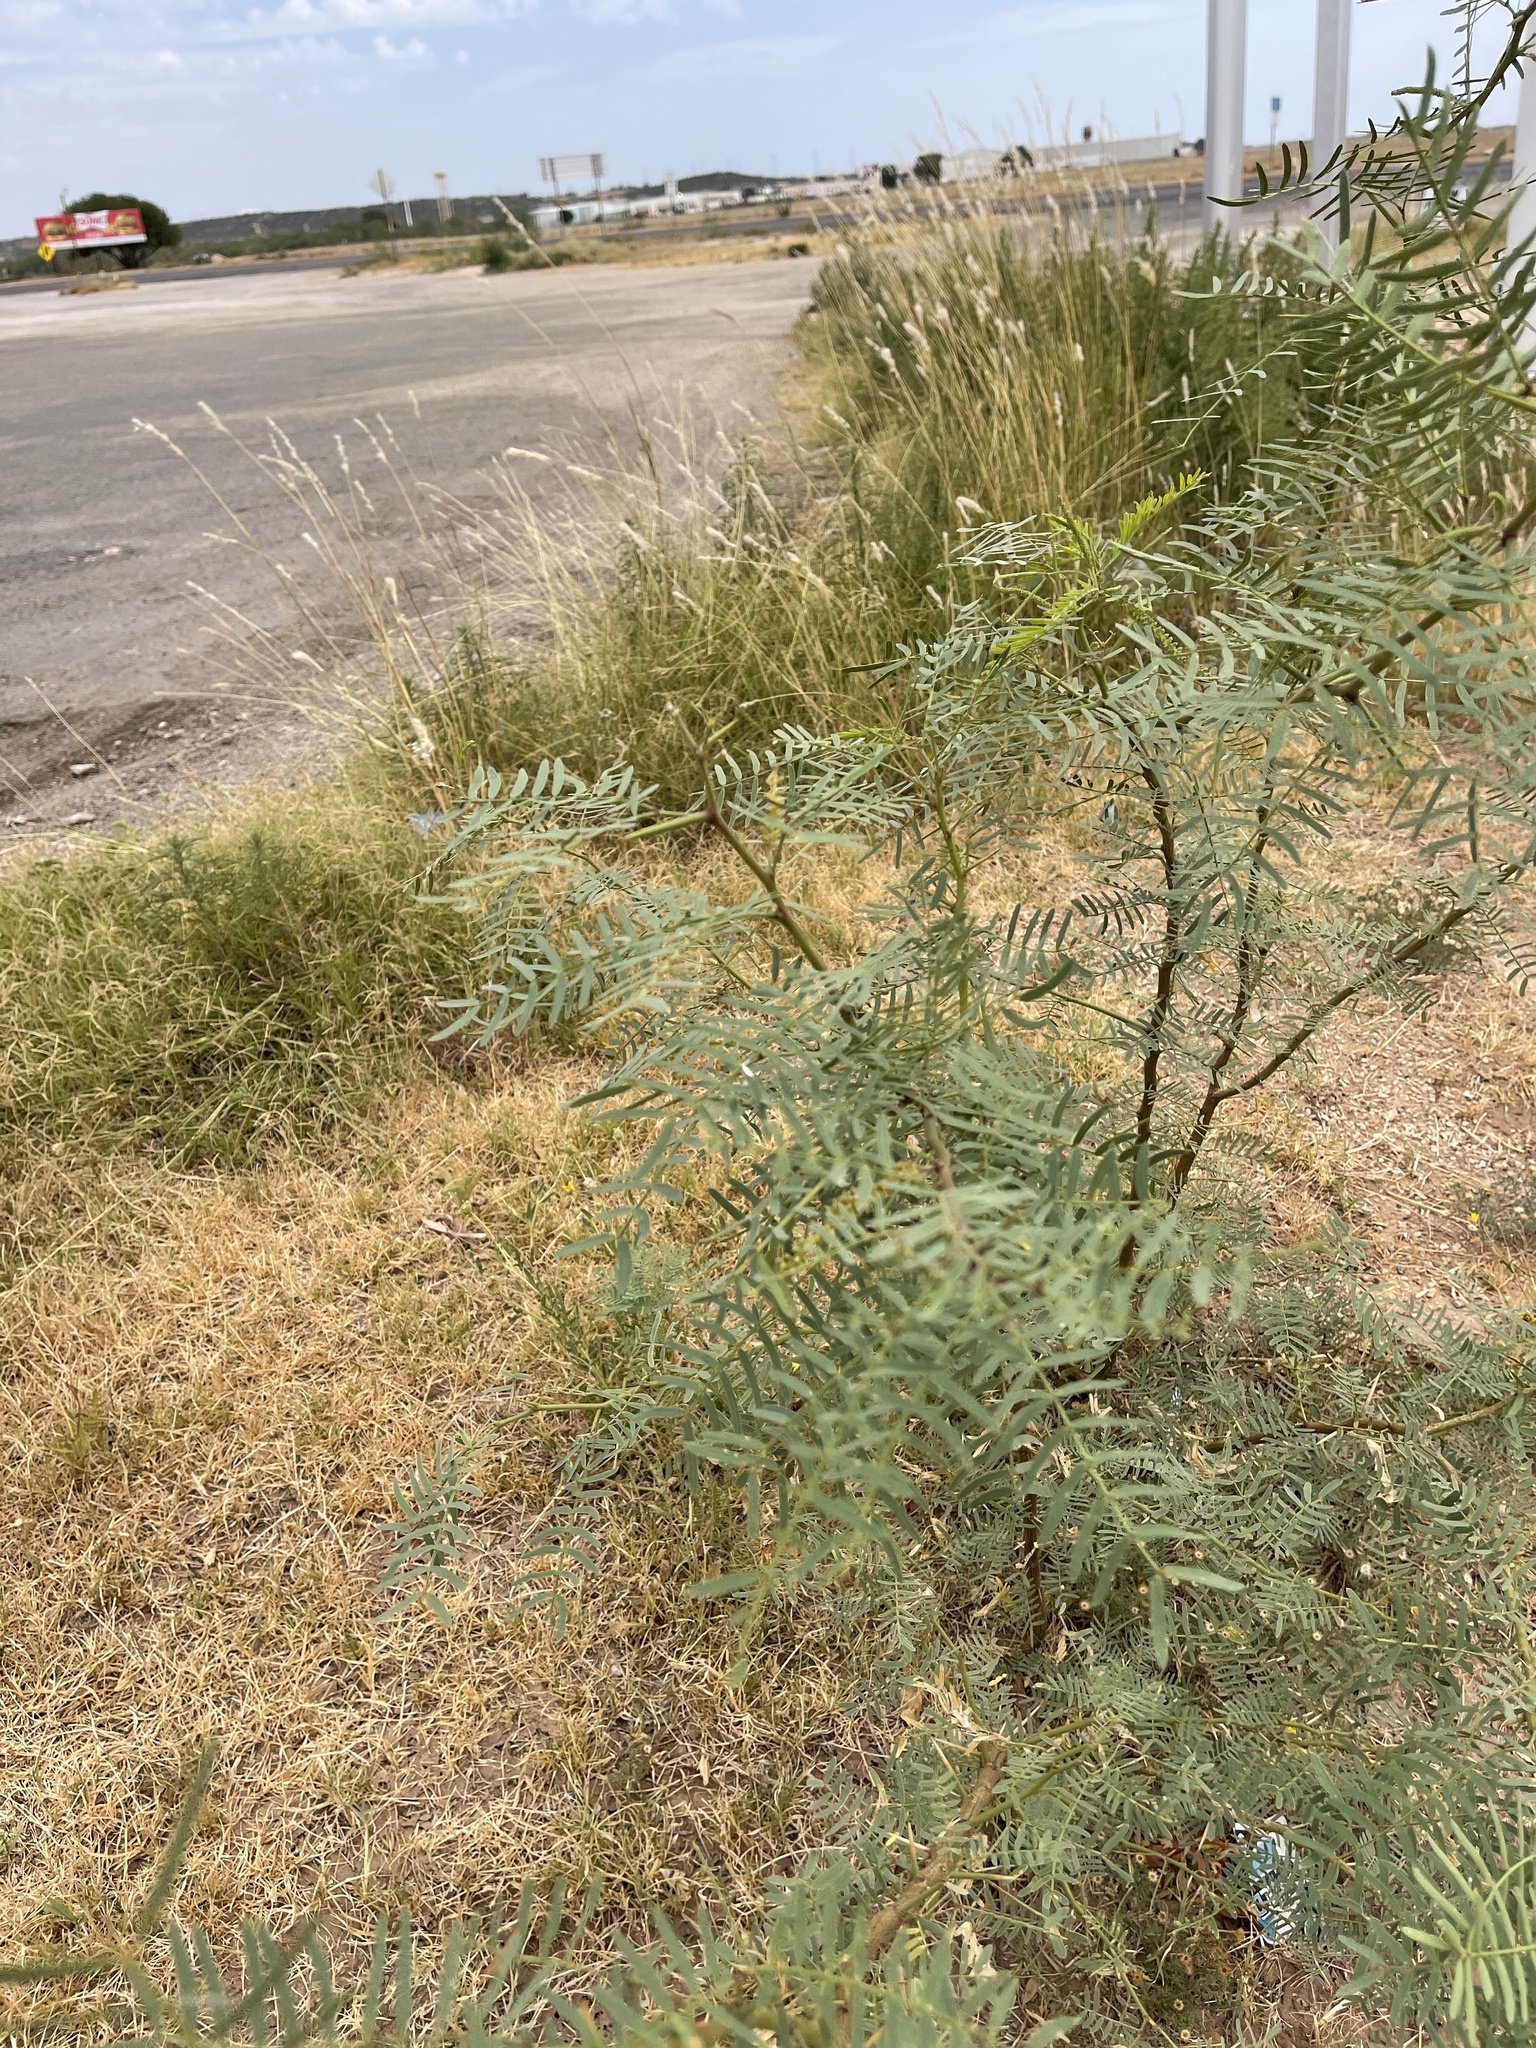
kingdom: Plantae
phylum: Tracheophyta
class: Magnoliopsida
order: Fabales
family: Fabaceae
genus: Prosopis
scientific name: Prosopis glandulosa
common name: Honey mesquite
